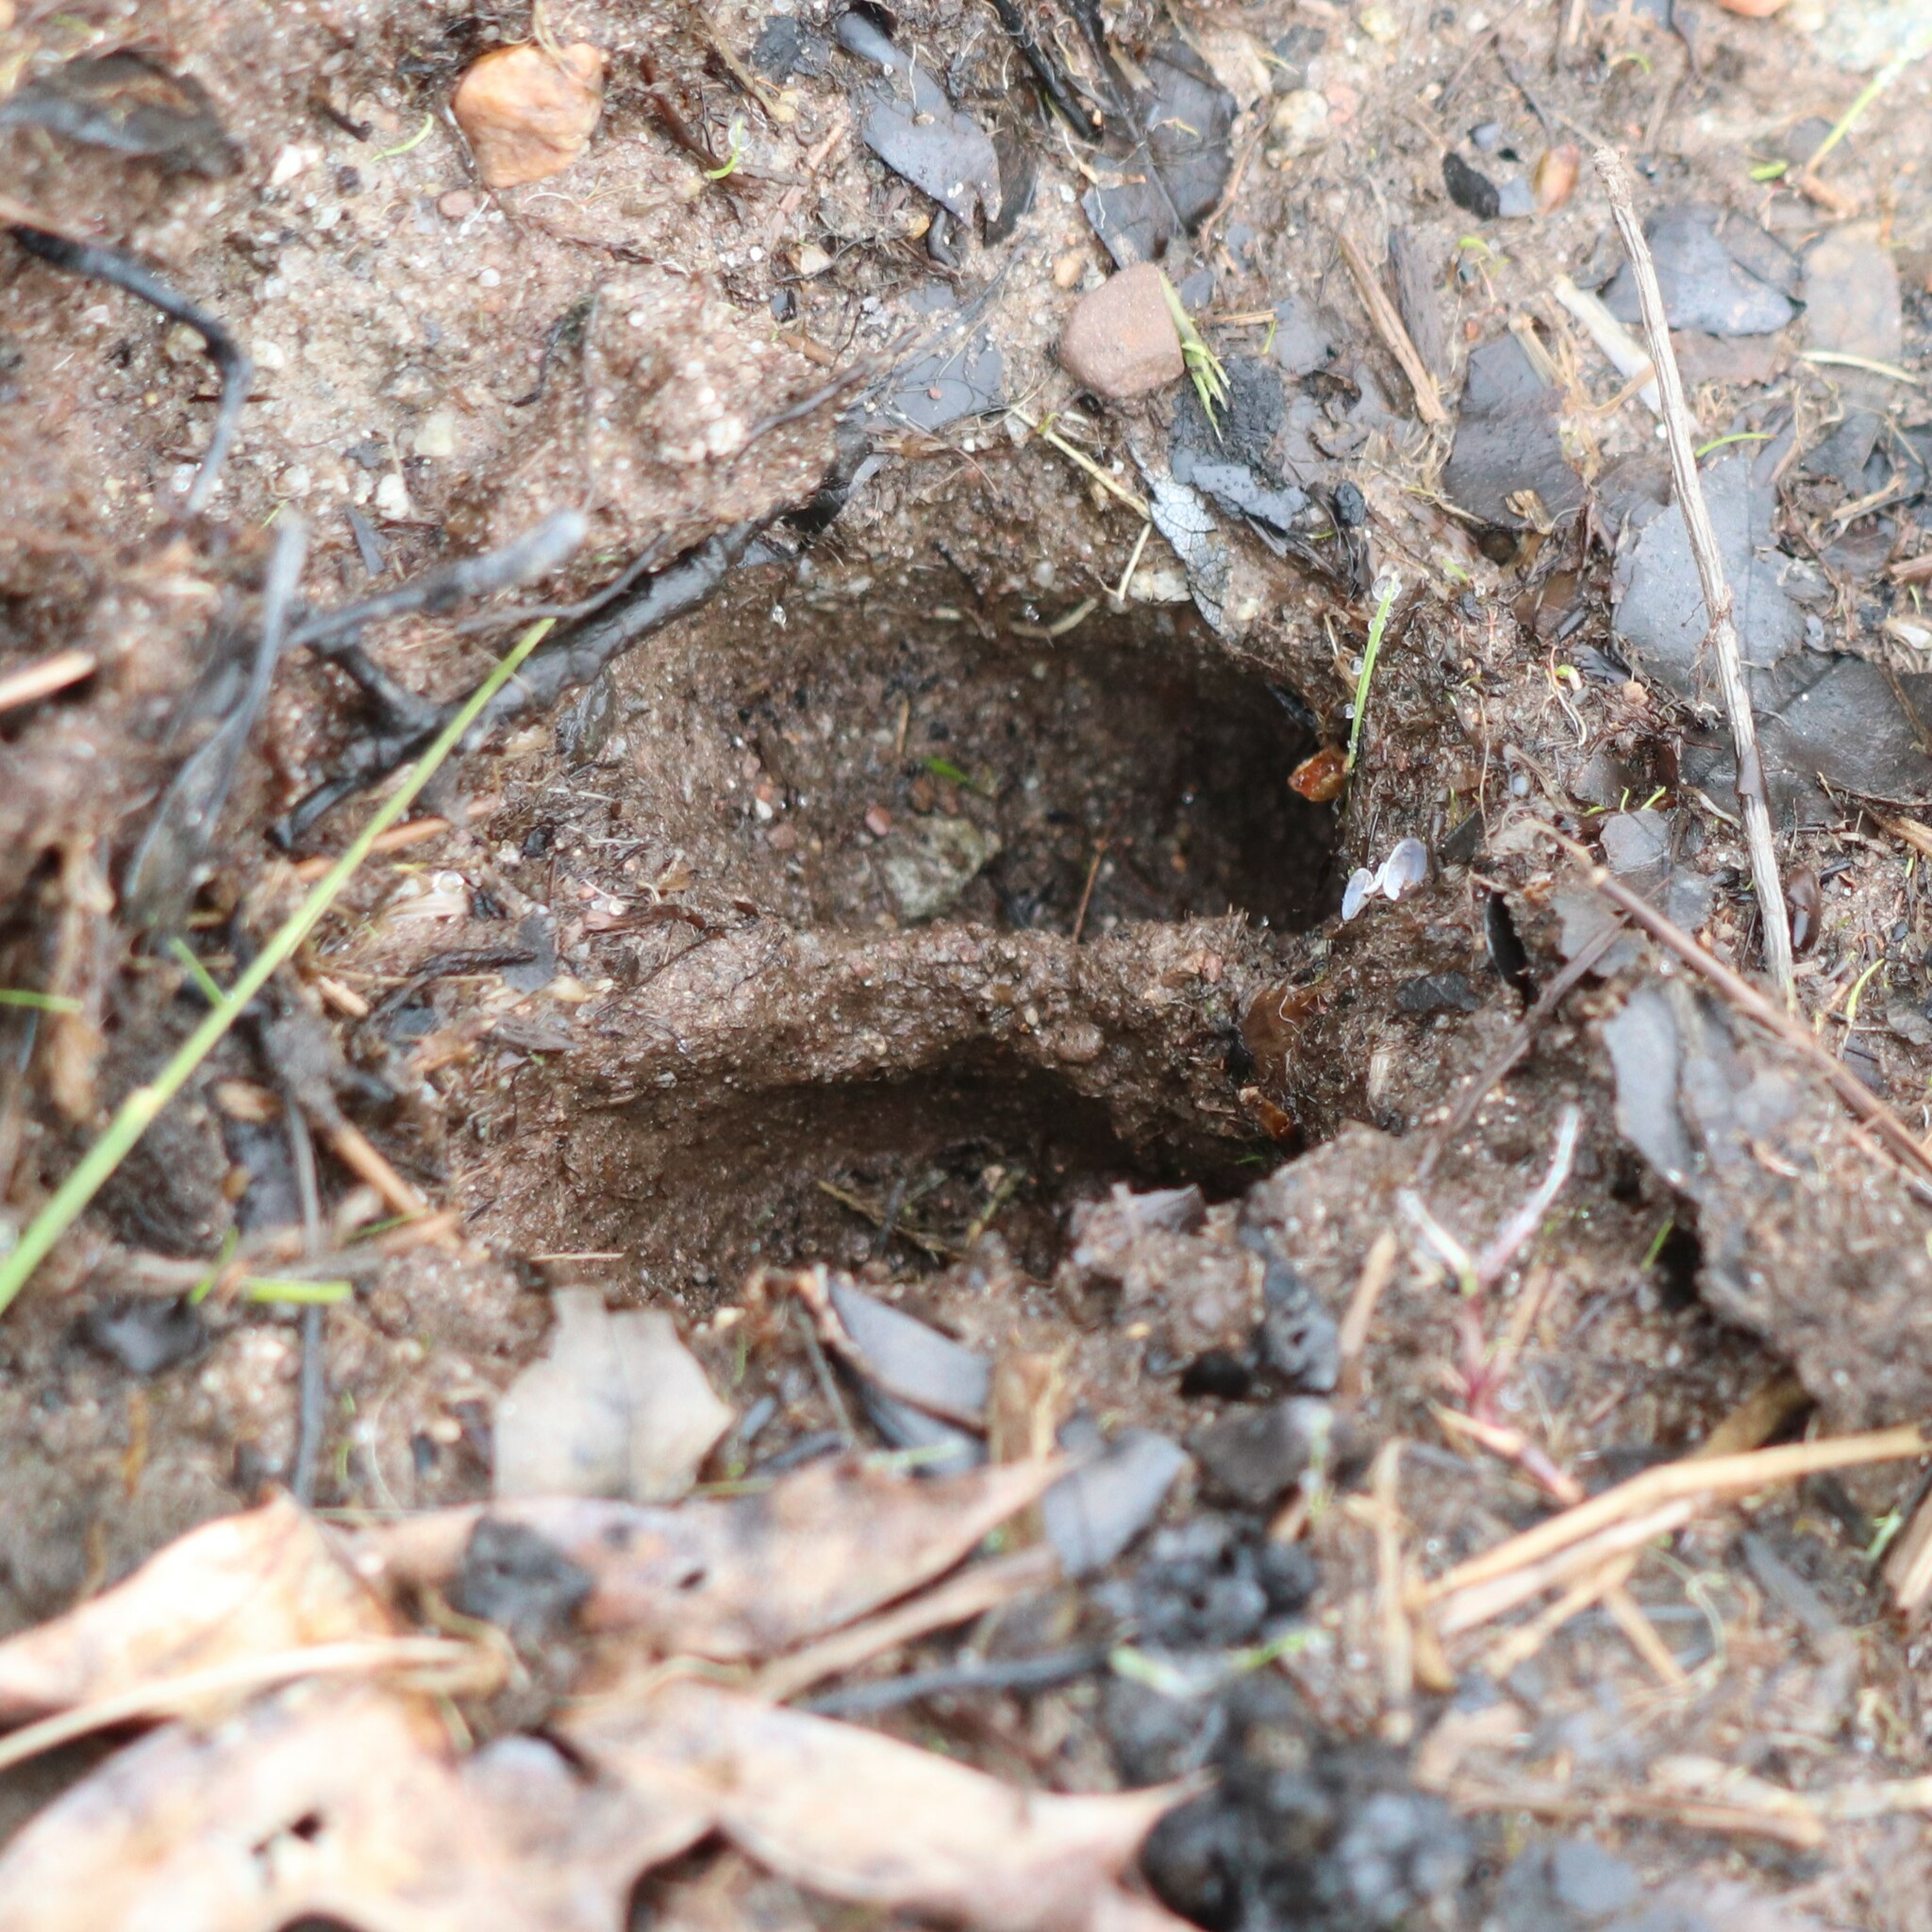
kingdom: Animalia
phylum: Chordata
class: Mammalia
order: Artiodactyla
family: Cervidae
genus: Odocoileus
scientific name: Odocoileus virginianus
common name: White-tailed deer
